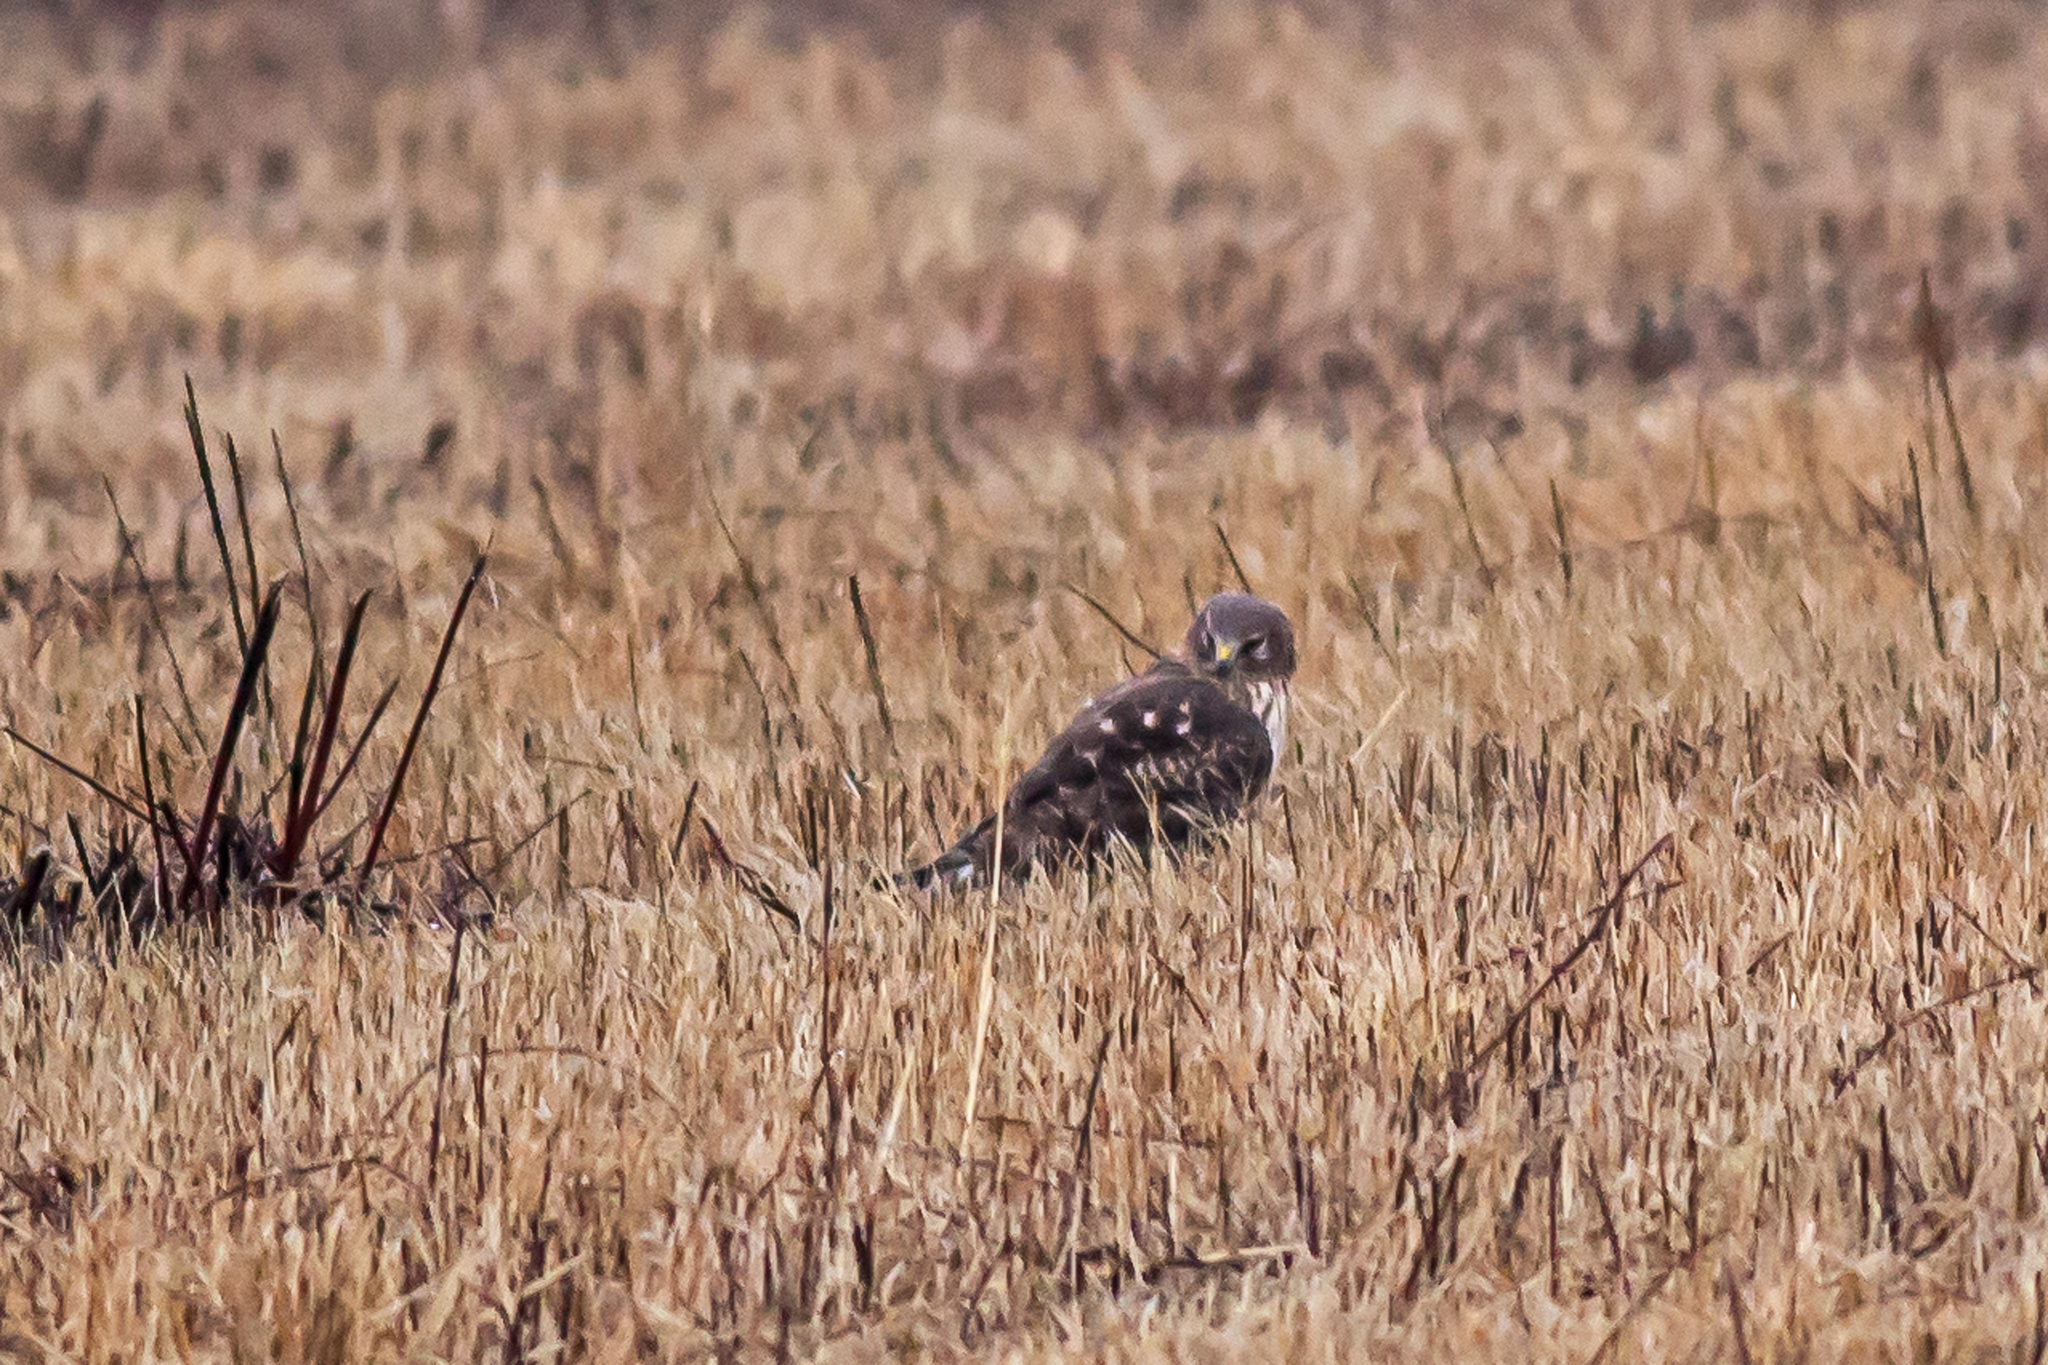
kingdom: Animalia
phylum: Chordata
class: Aves
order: Accipitriformes
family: Accipitridae
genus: Circus
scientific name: Circus cyaneus
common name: Hen harrier
